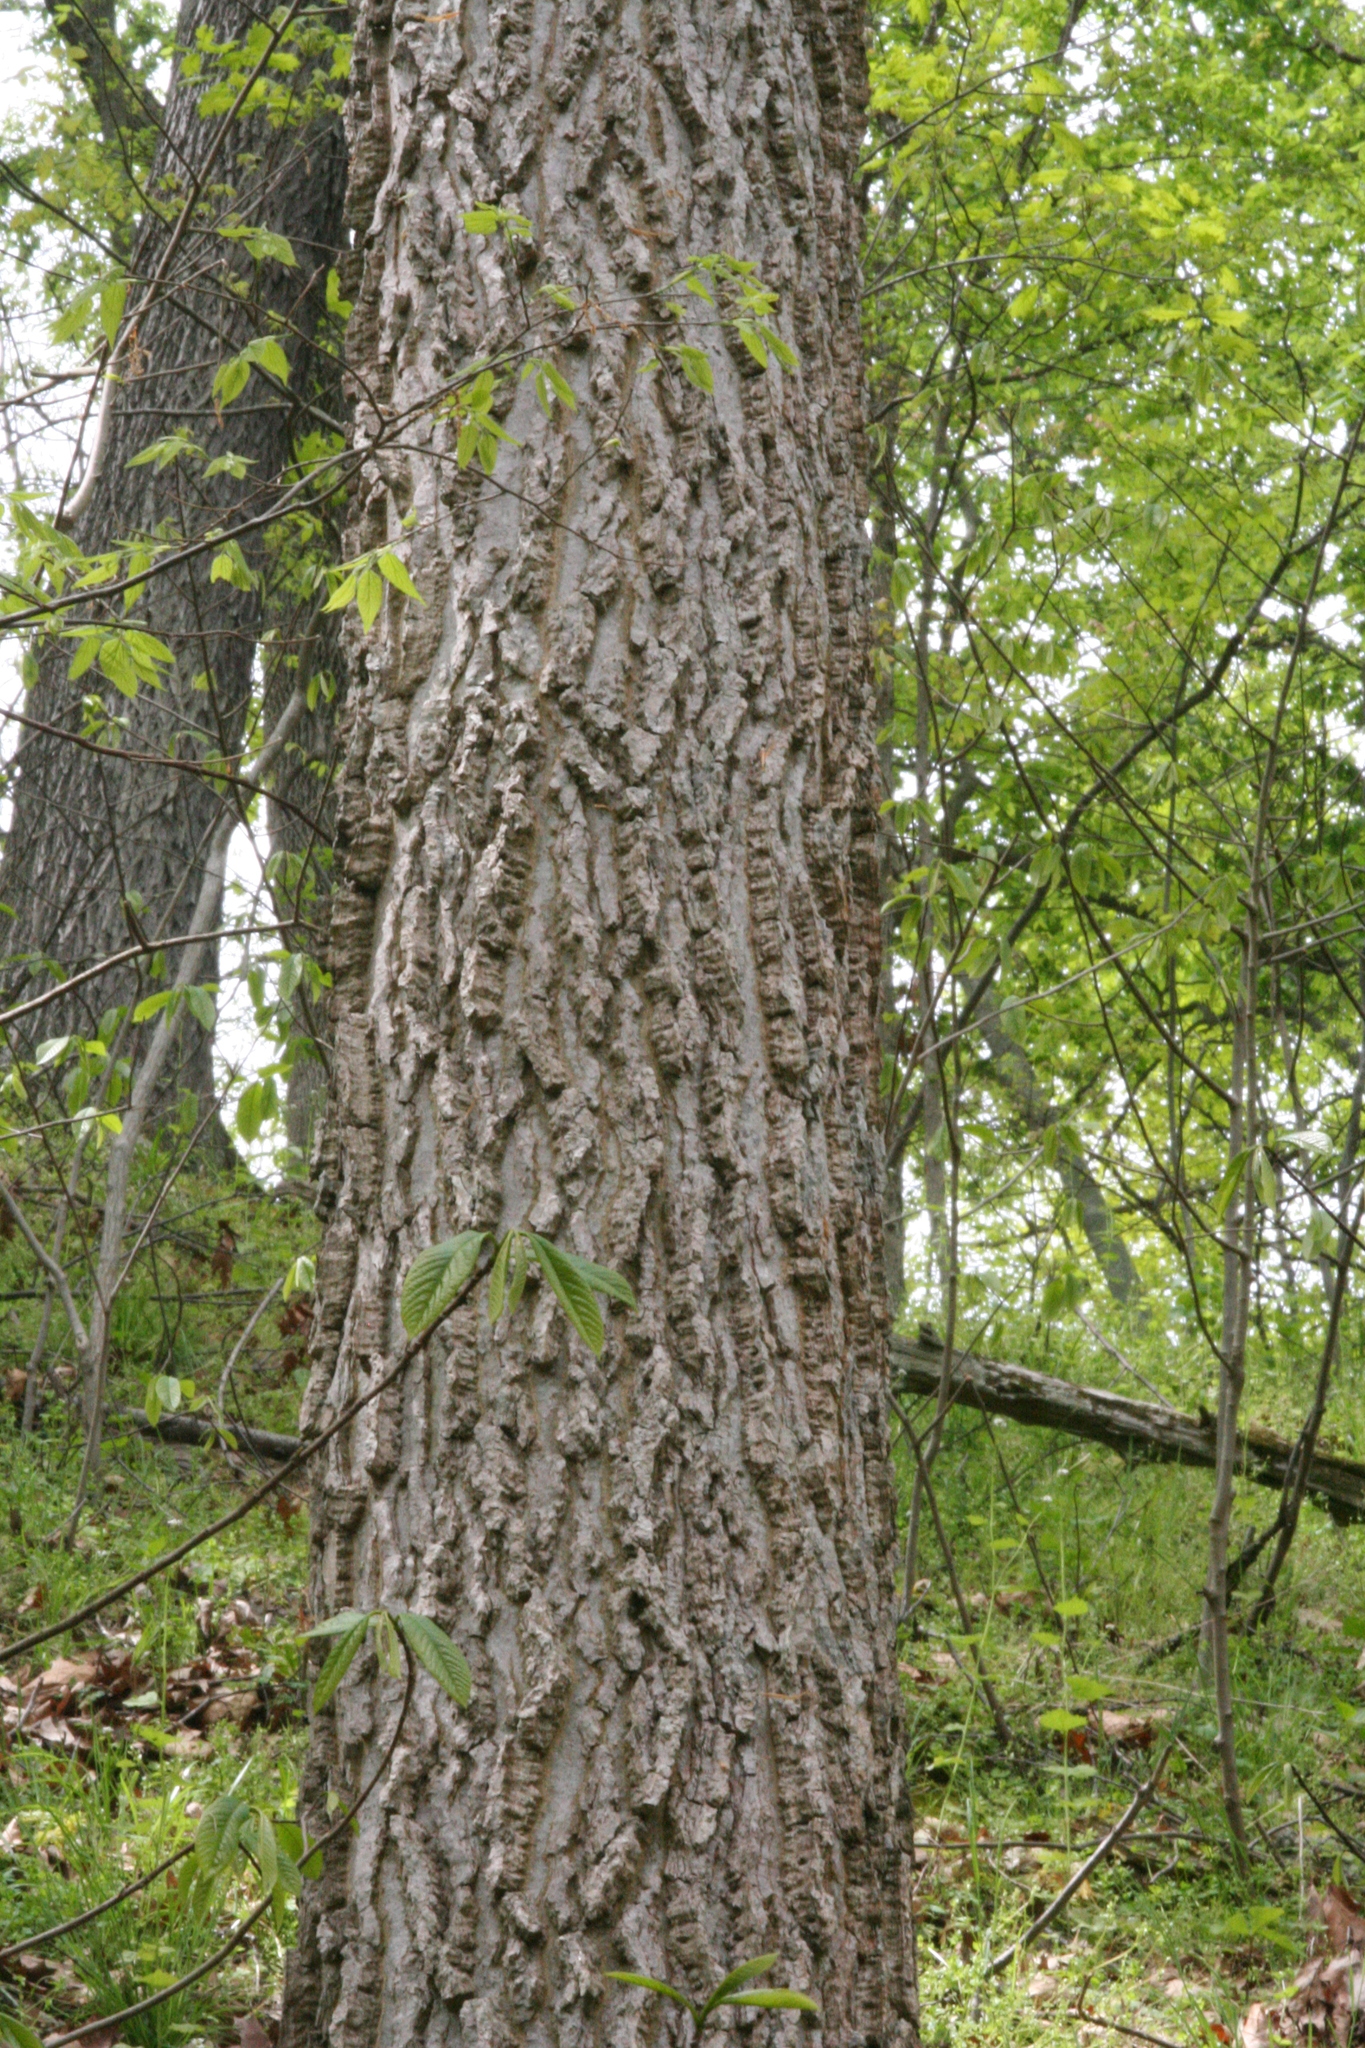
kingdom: Plantae
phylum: Tracheophyta
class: Magnoliopsida
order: Rosales
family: Cannabaceae
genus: Celtis
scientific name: Celtis occidentalis
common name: Common hackberry
